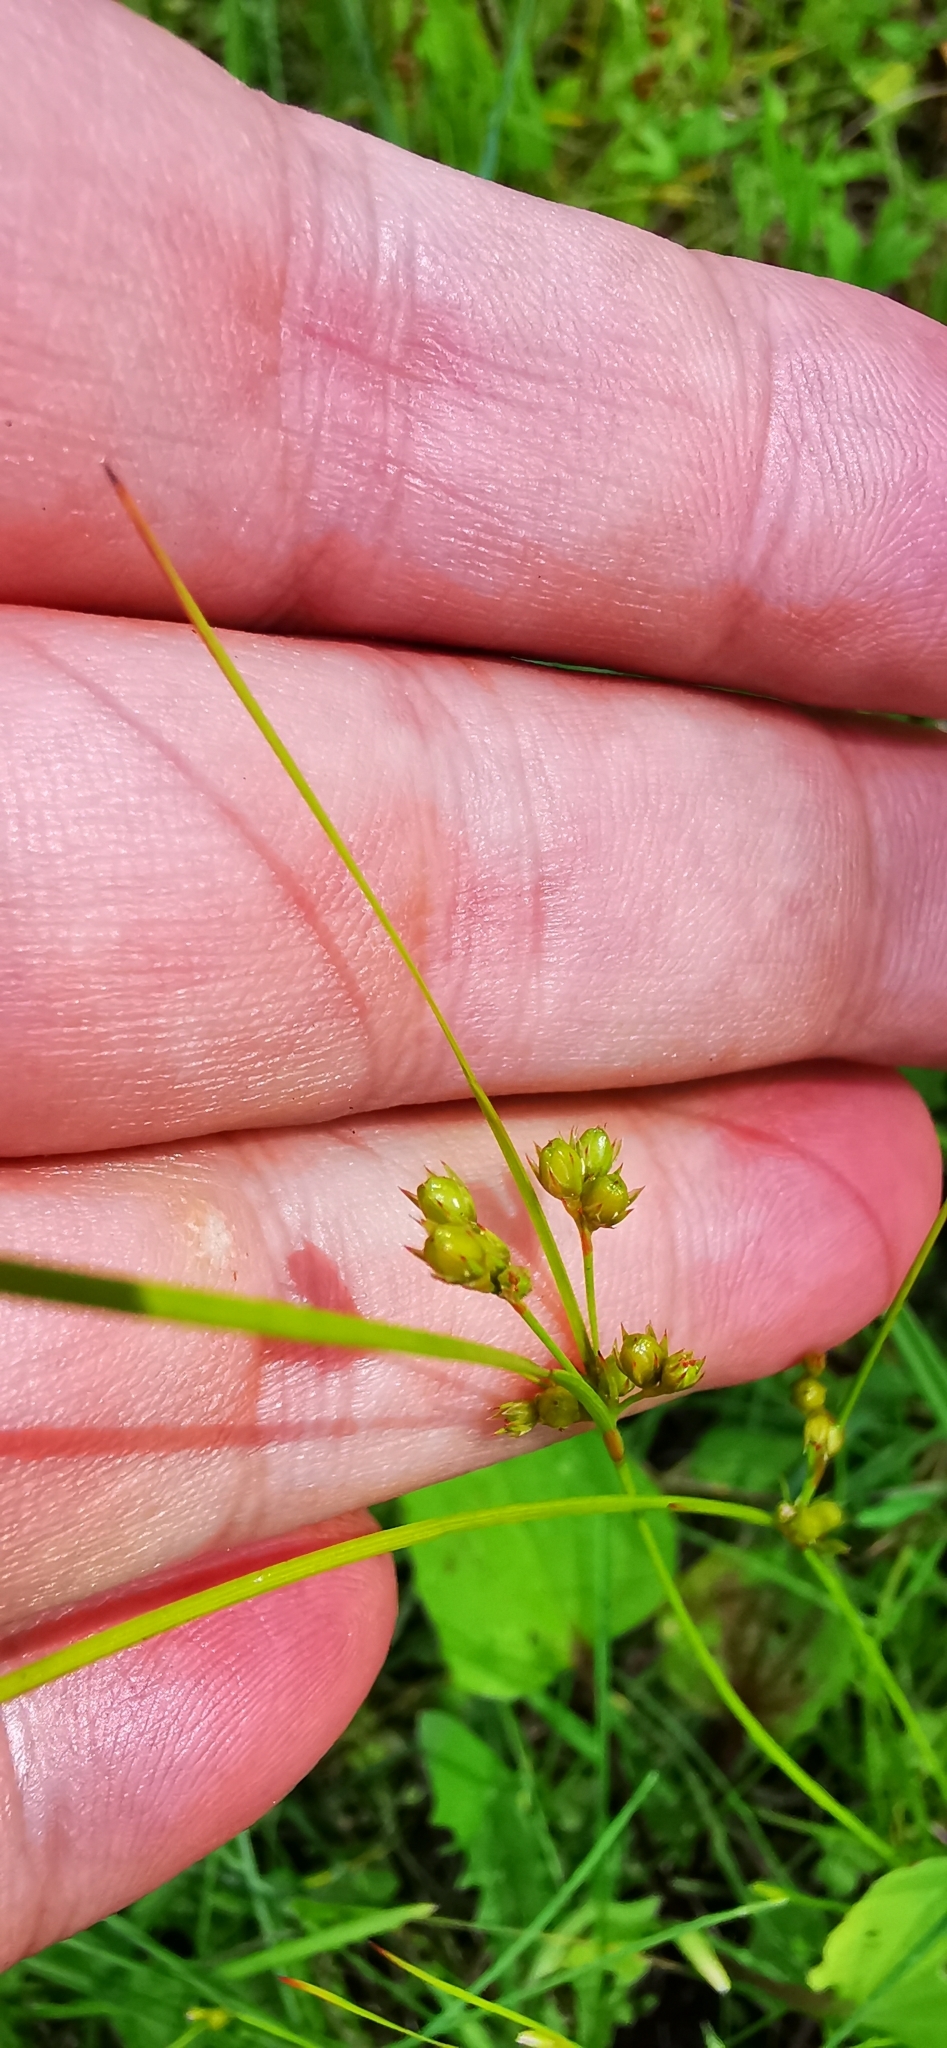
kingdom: Plantae
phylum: Tracheophyta
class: Liliopsida
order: Poales
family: Juncaceae
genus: Juncus
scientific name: Juncus tenuis
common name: Slender rush
